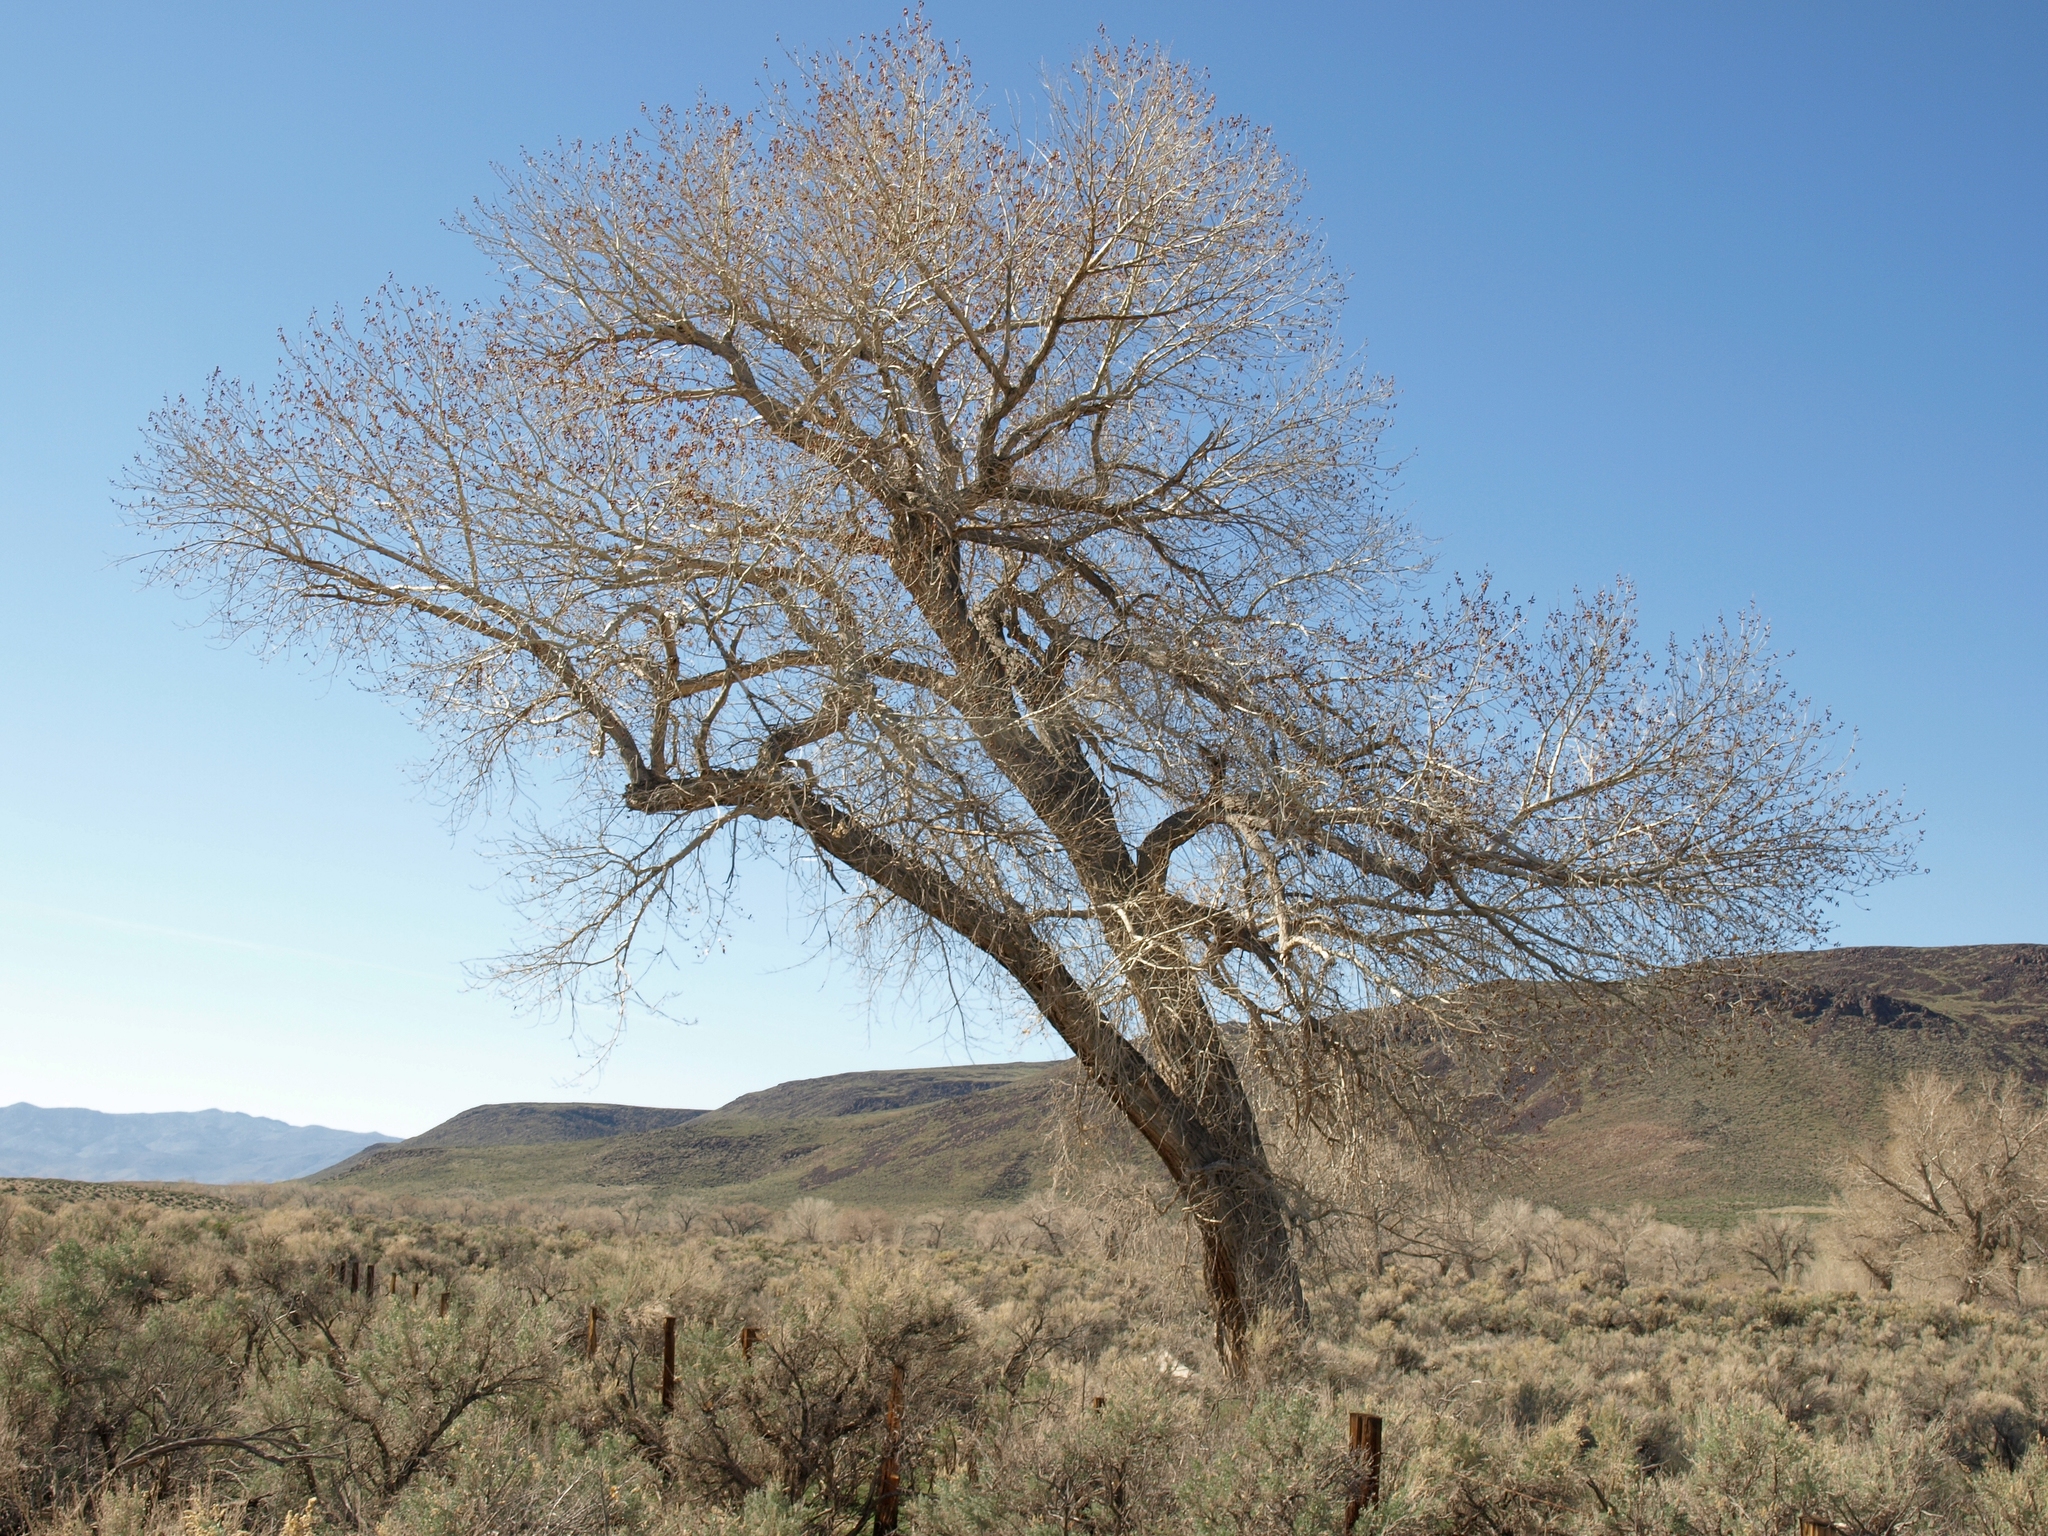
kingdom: Plantae
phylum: Tracheophyta
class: Magnoliopsida
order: Malpighiales
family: Salicaceae
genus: Populus
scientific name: Populus fremontii
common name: Fremont's cottonwood
